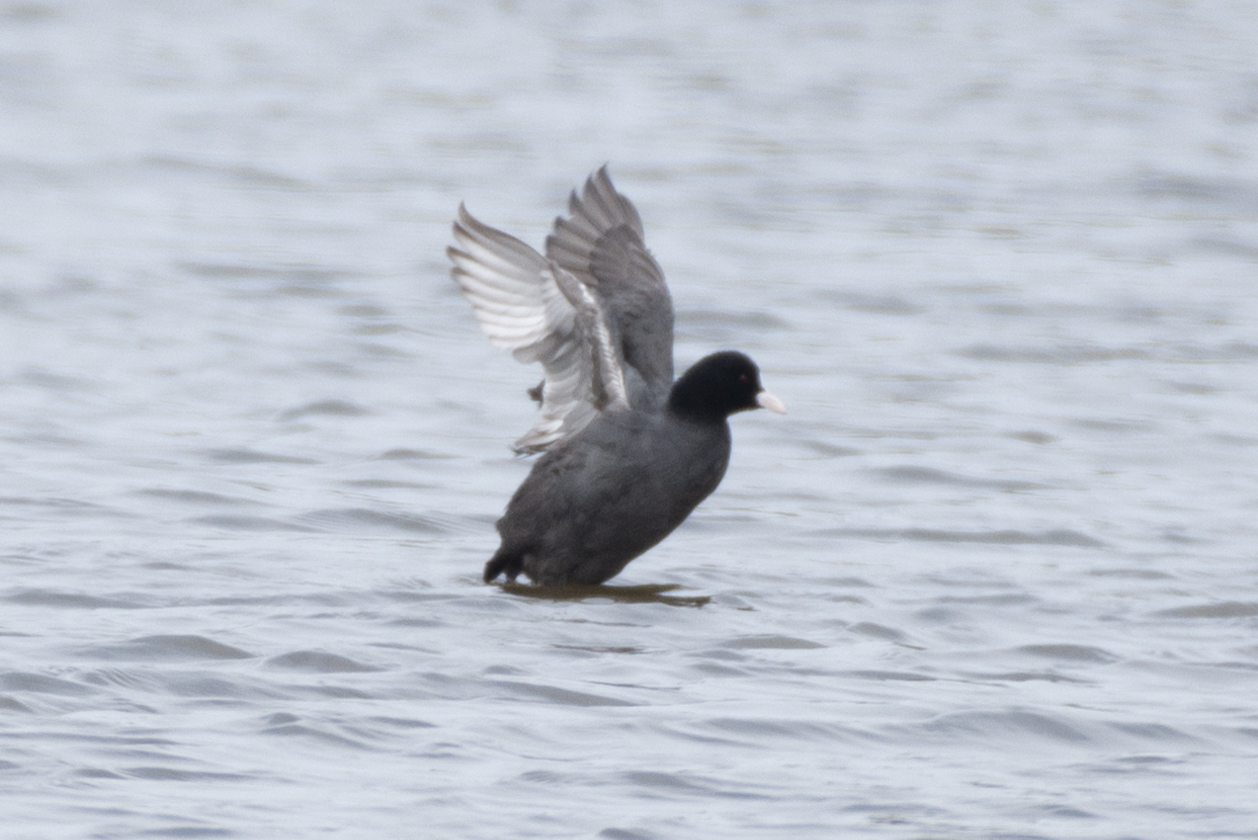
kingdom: Animalia
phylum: Chordata
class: Aves
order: Gruiformes
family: Rallidae
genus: Fulica
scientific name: Fulica atra
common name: Eurasian coot
